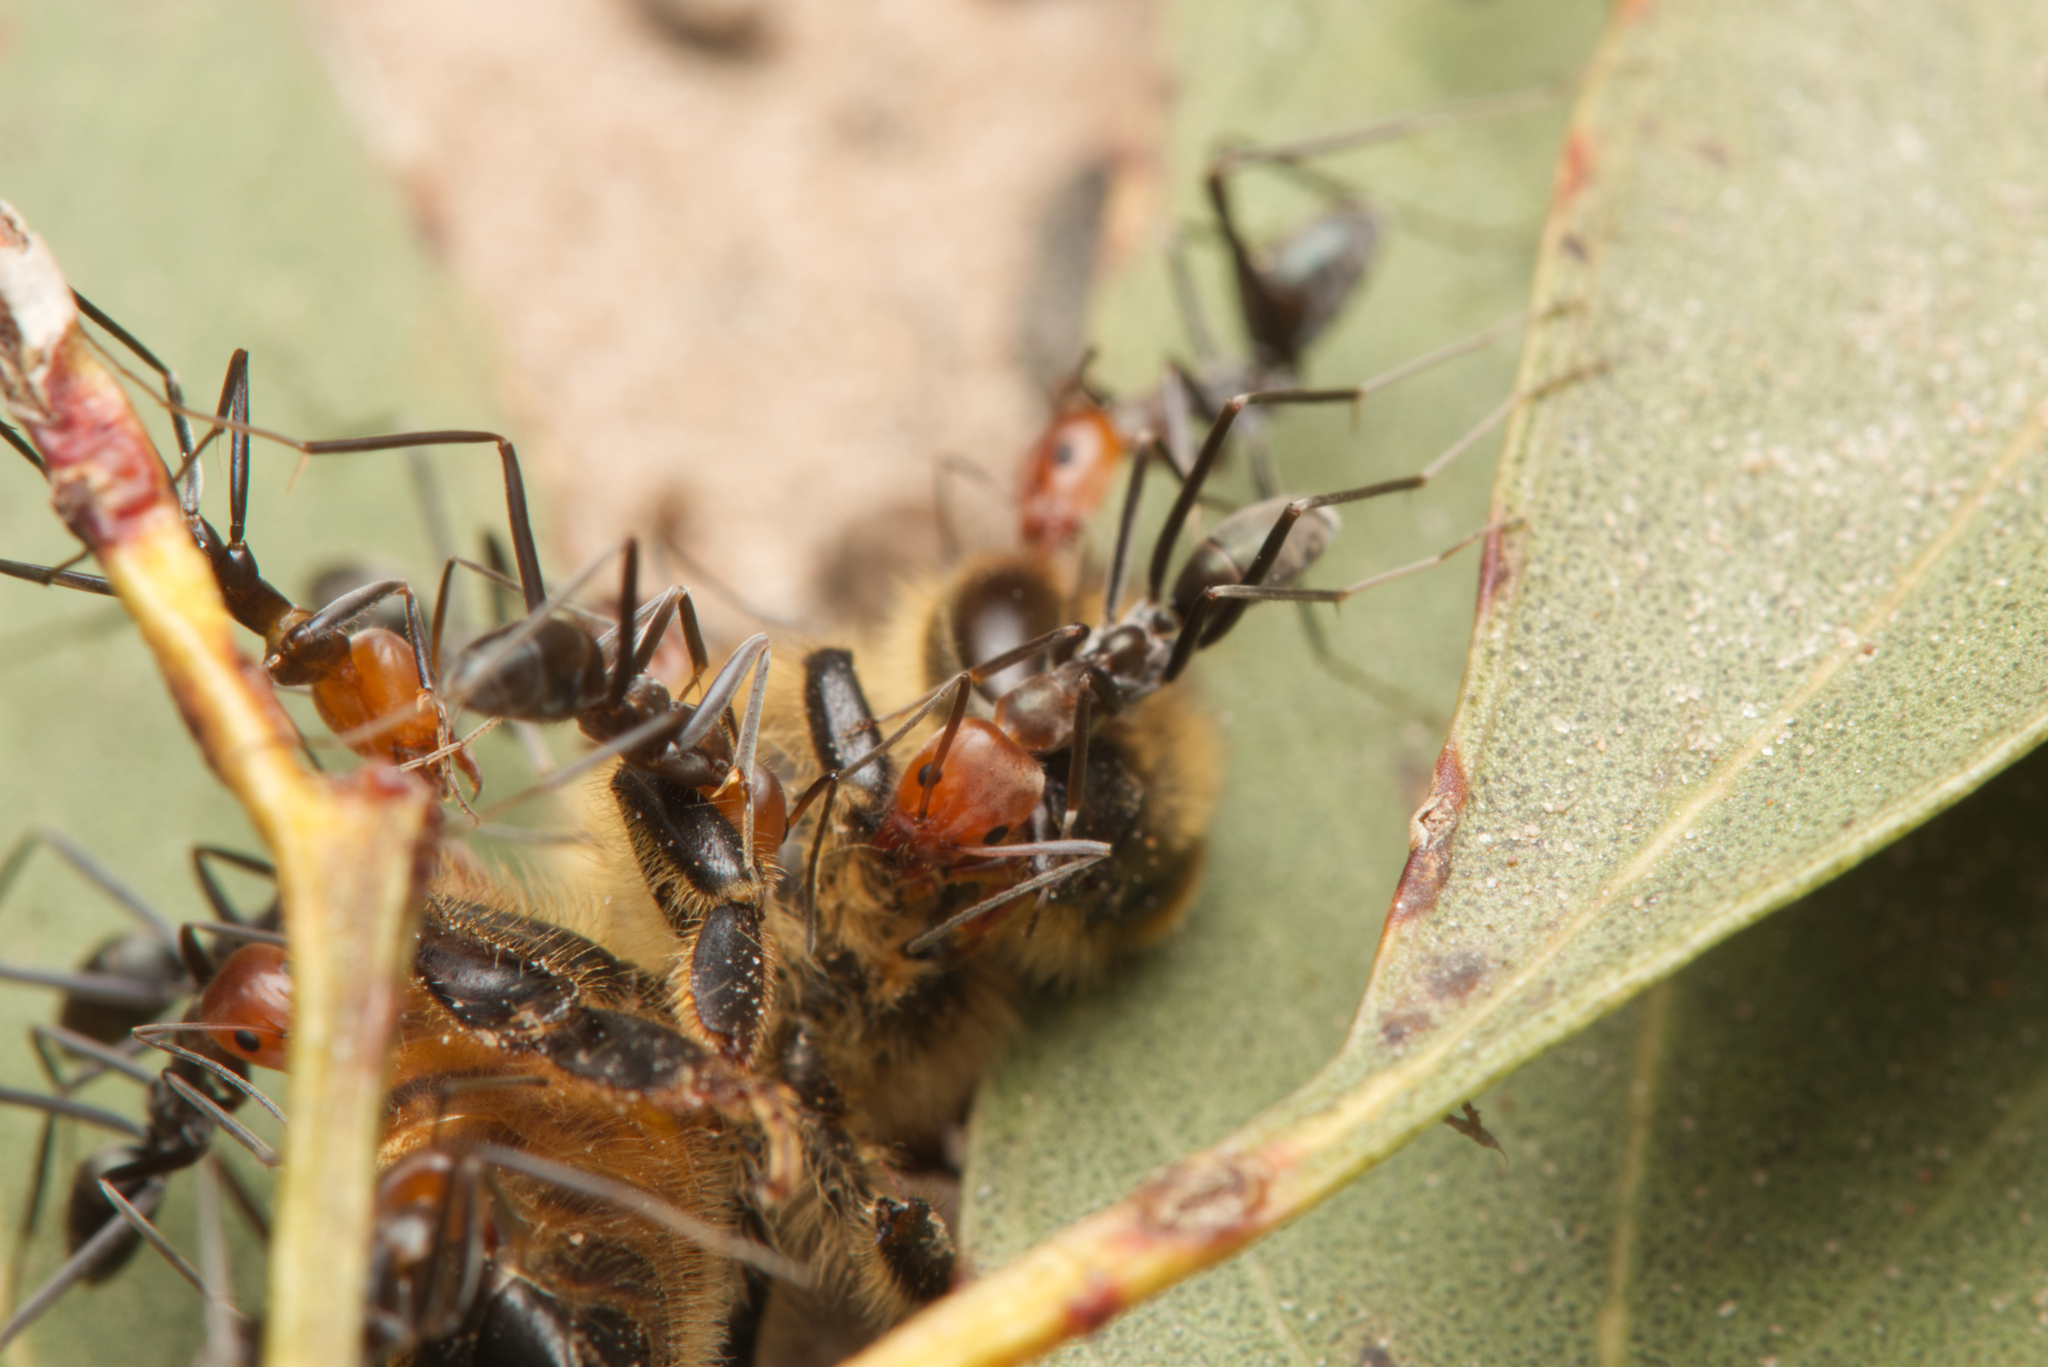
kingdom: Animalia
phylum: Arthropoda
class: Insecta
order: Hymenoptera
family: Formicidae
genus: Iridomyrmex
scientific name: Iridomyrmex
